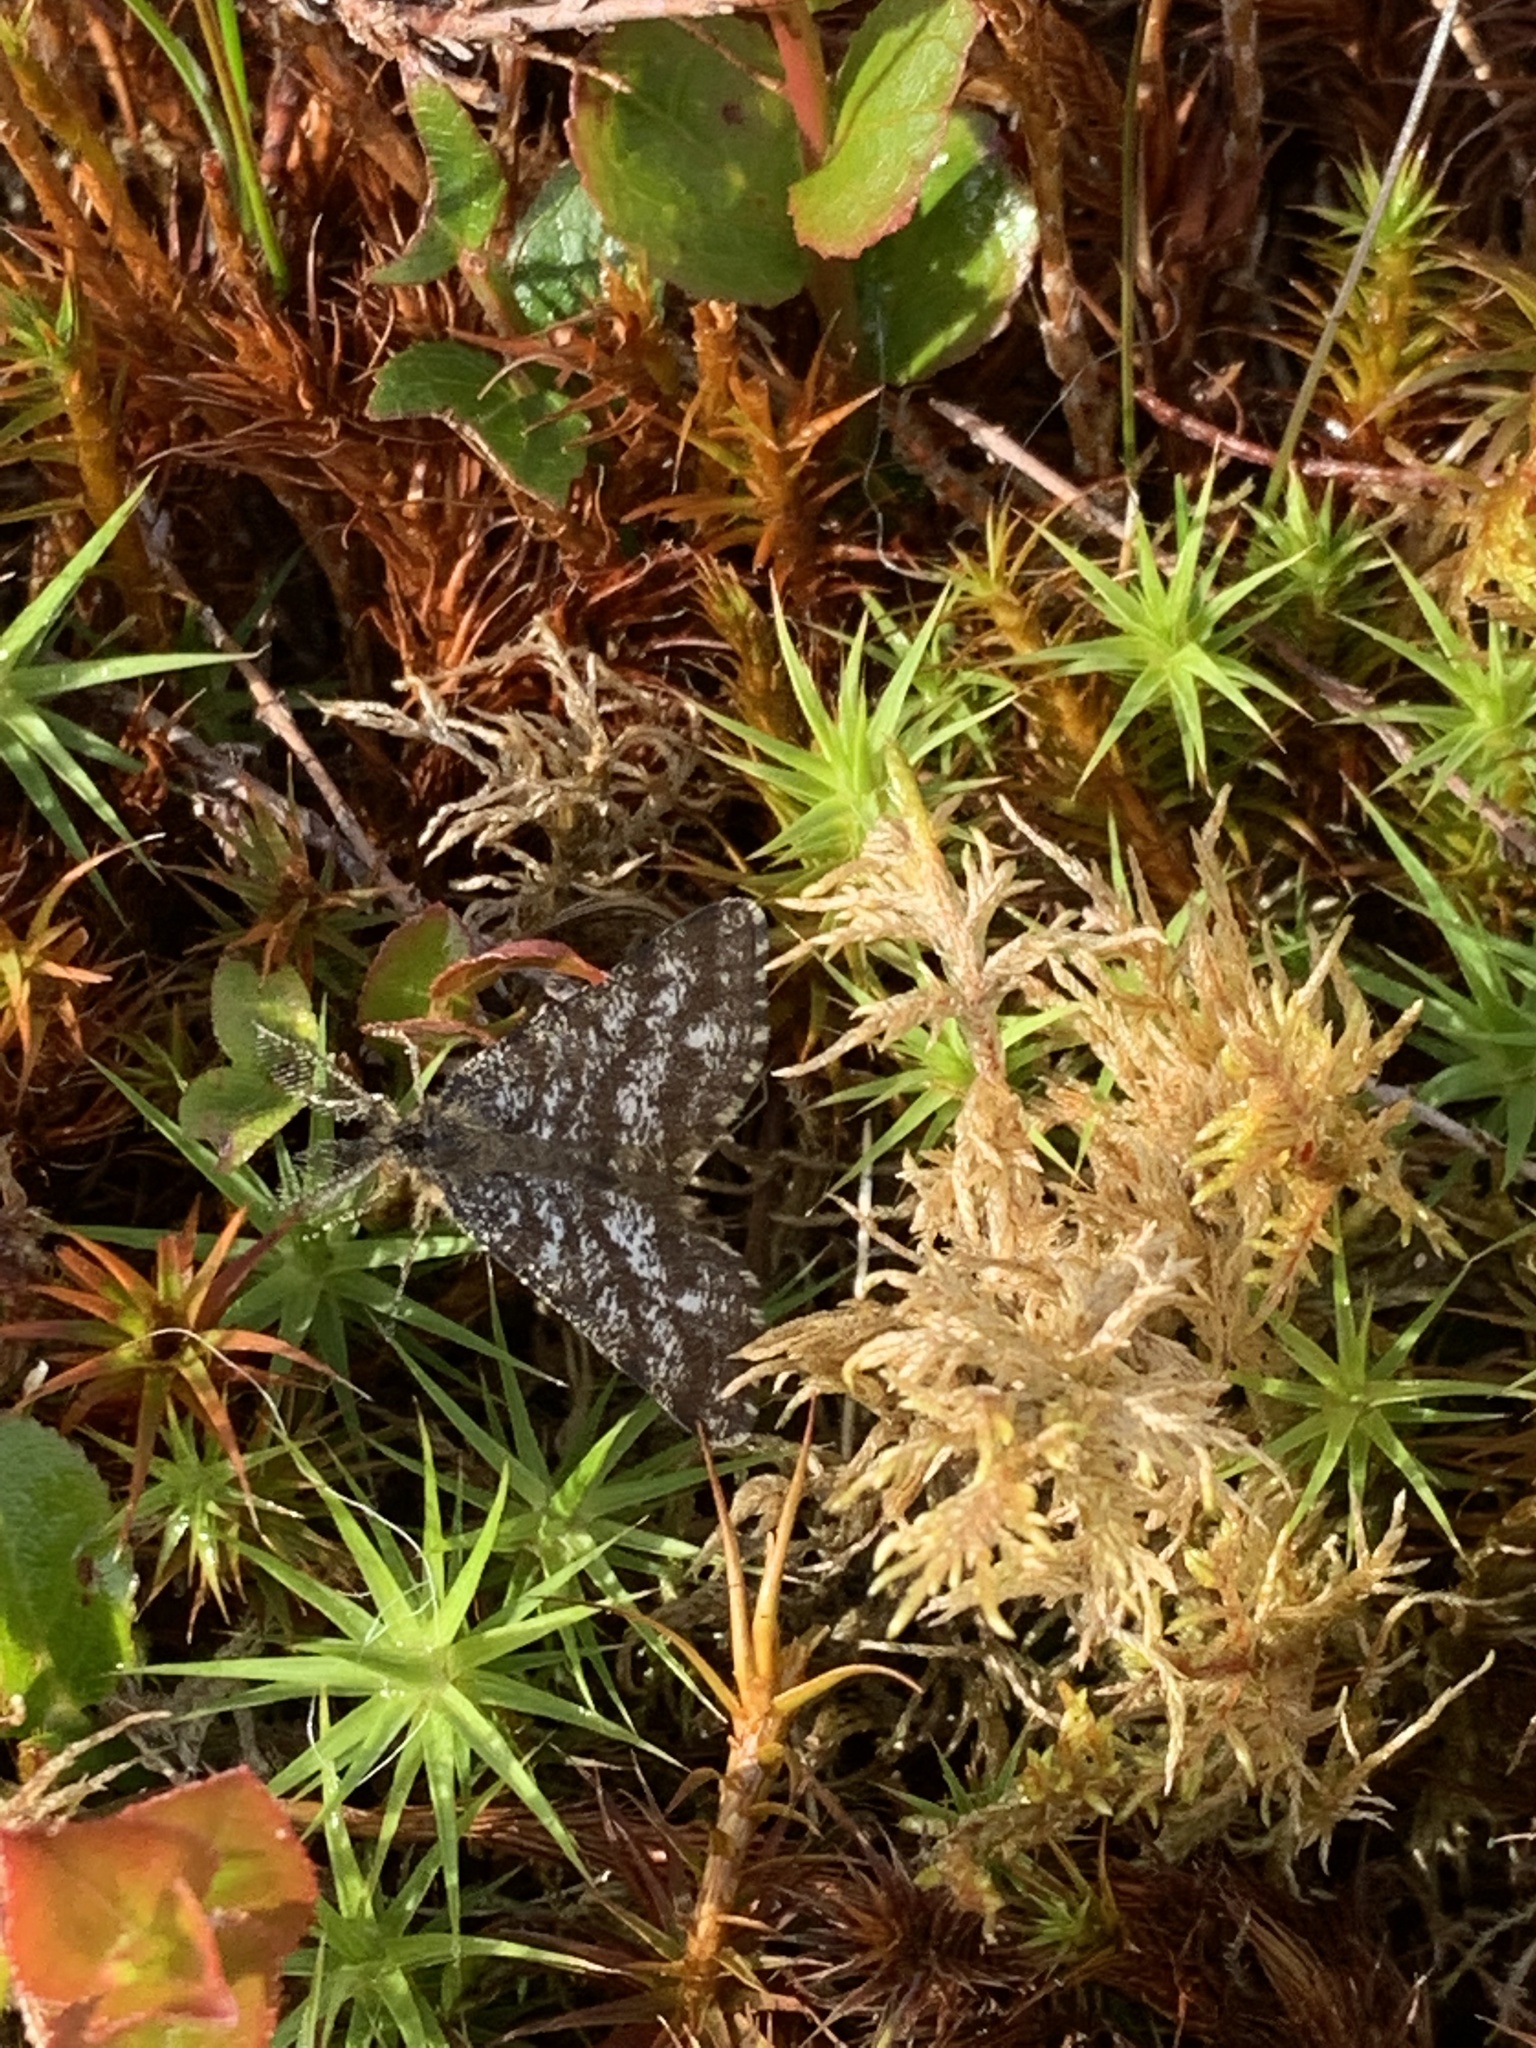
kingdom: Animalia
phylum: Arthropoda
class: Insecta
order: Lepidoptera
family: Geometridae
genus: Ematurga
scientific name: Ematurga atomaria
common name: Common heath
